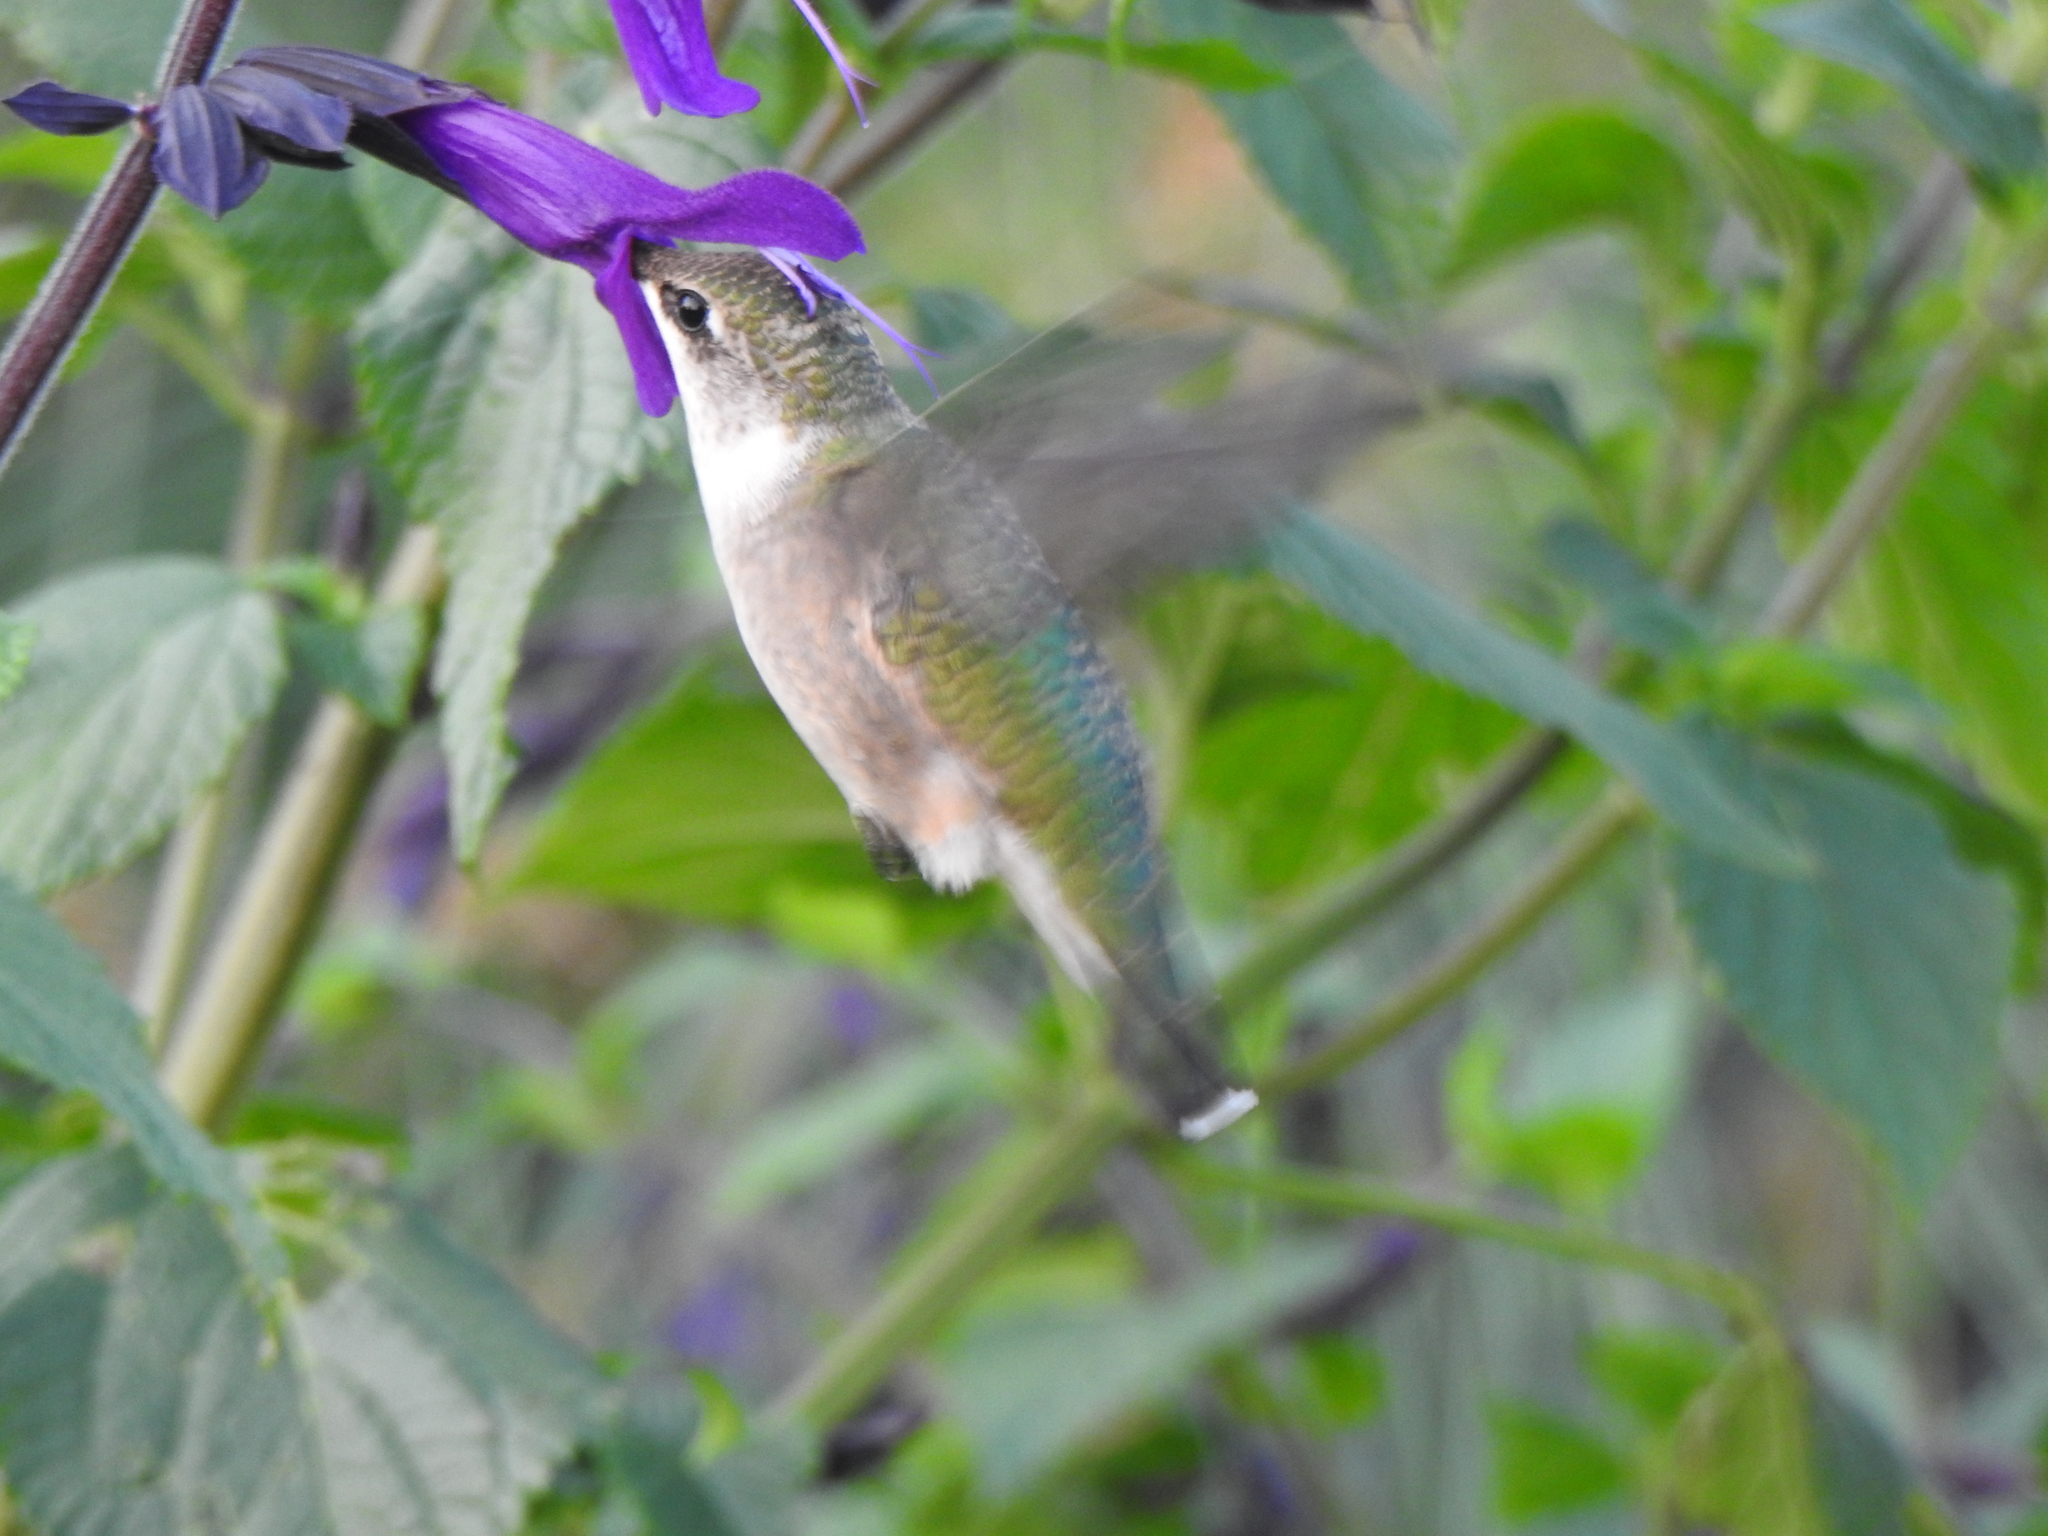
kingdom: Animalia
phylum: Chordata
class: Aves
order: Apodiformes
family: Trochilidae
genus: Archilochus
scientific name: Archilochus colubris
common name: Ruby-throated hummingbird
